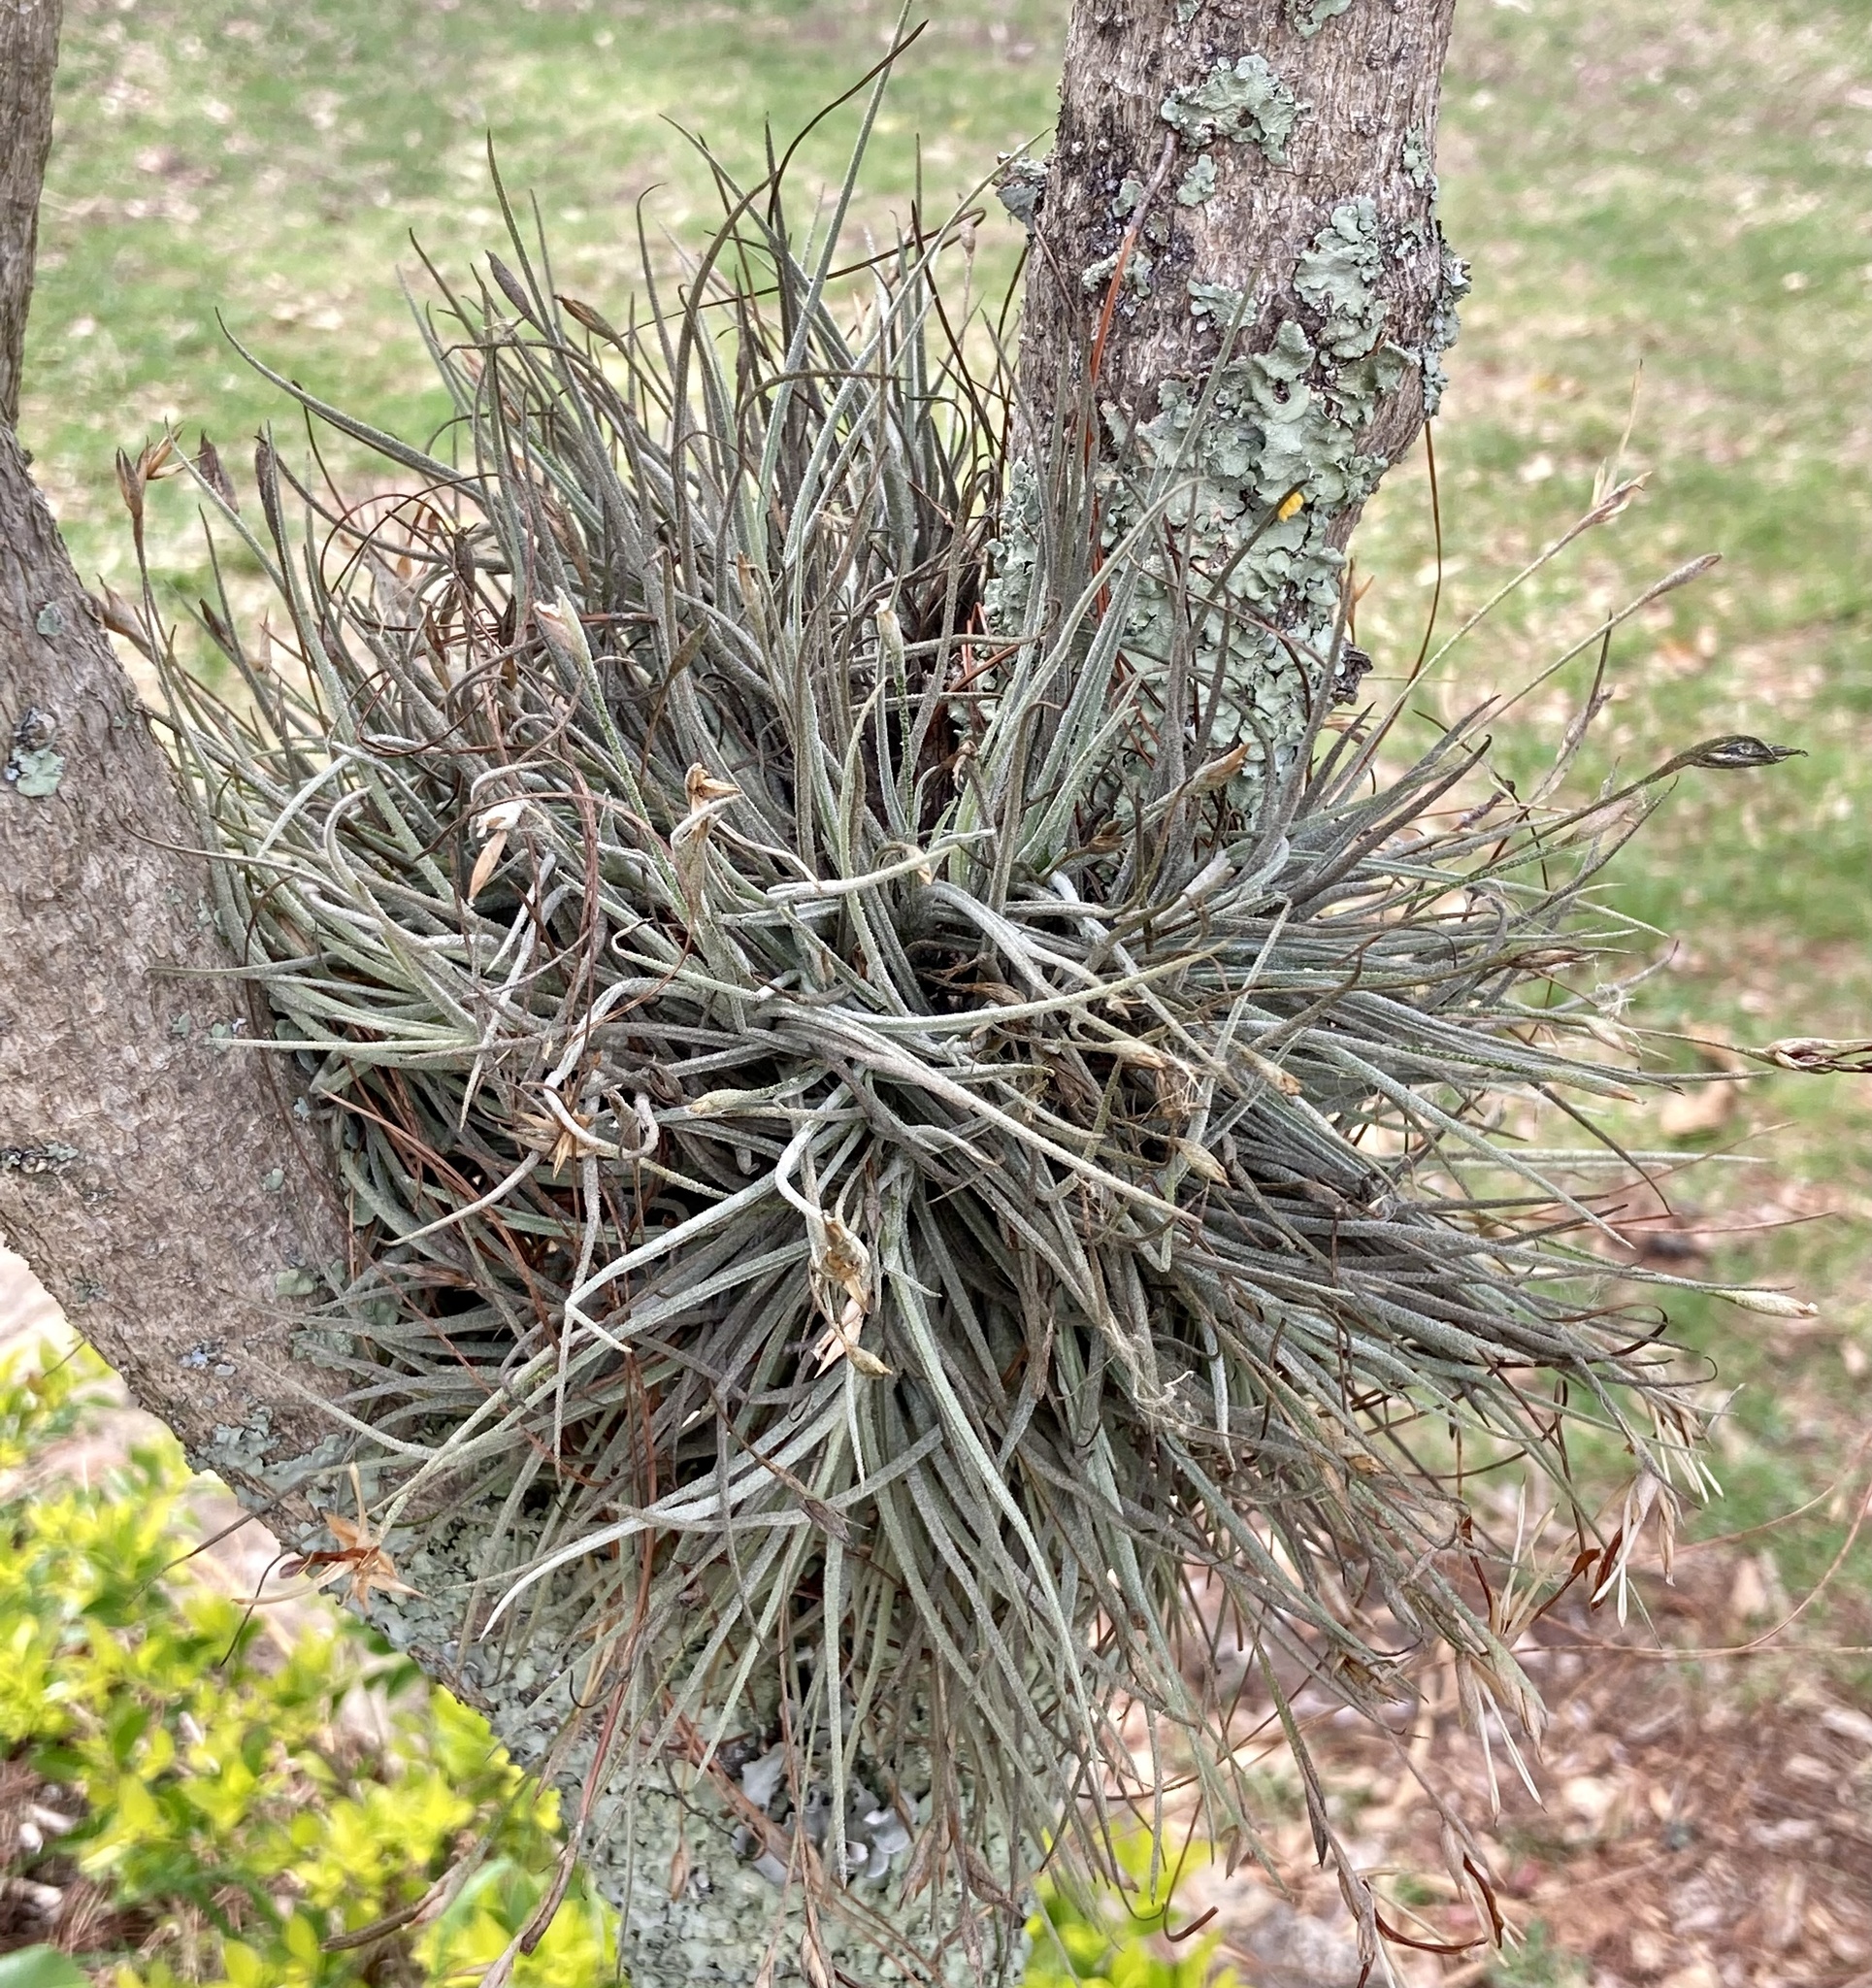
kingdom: Plantae
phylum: Tracheophyta
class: Liliopsida
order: Poales
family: Bromeliaceae
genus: Tillandsia
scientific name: Tillandsia recurvata
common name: Small ballmoss
